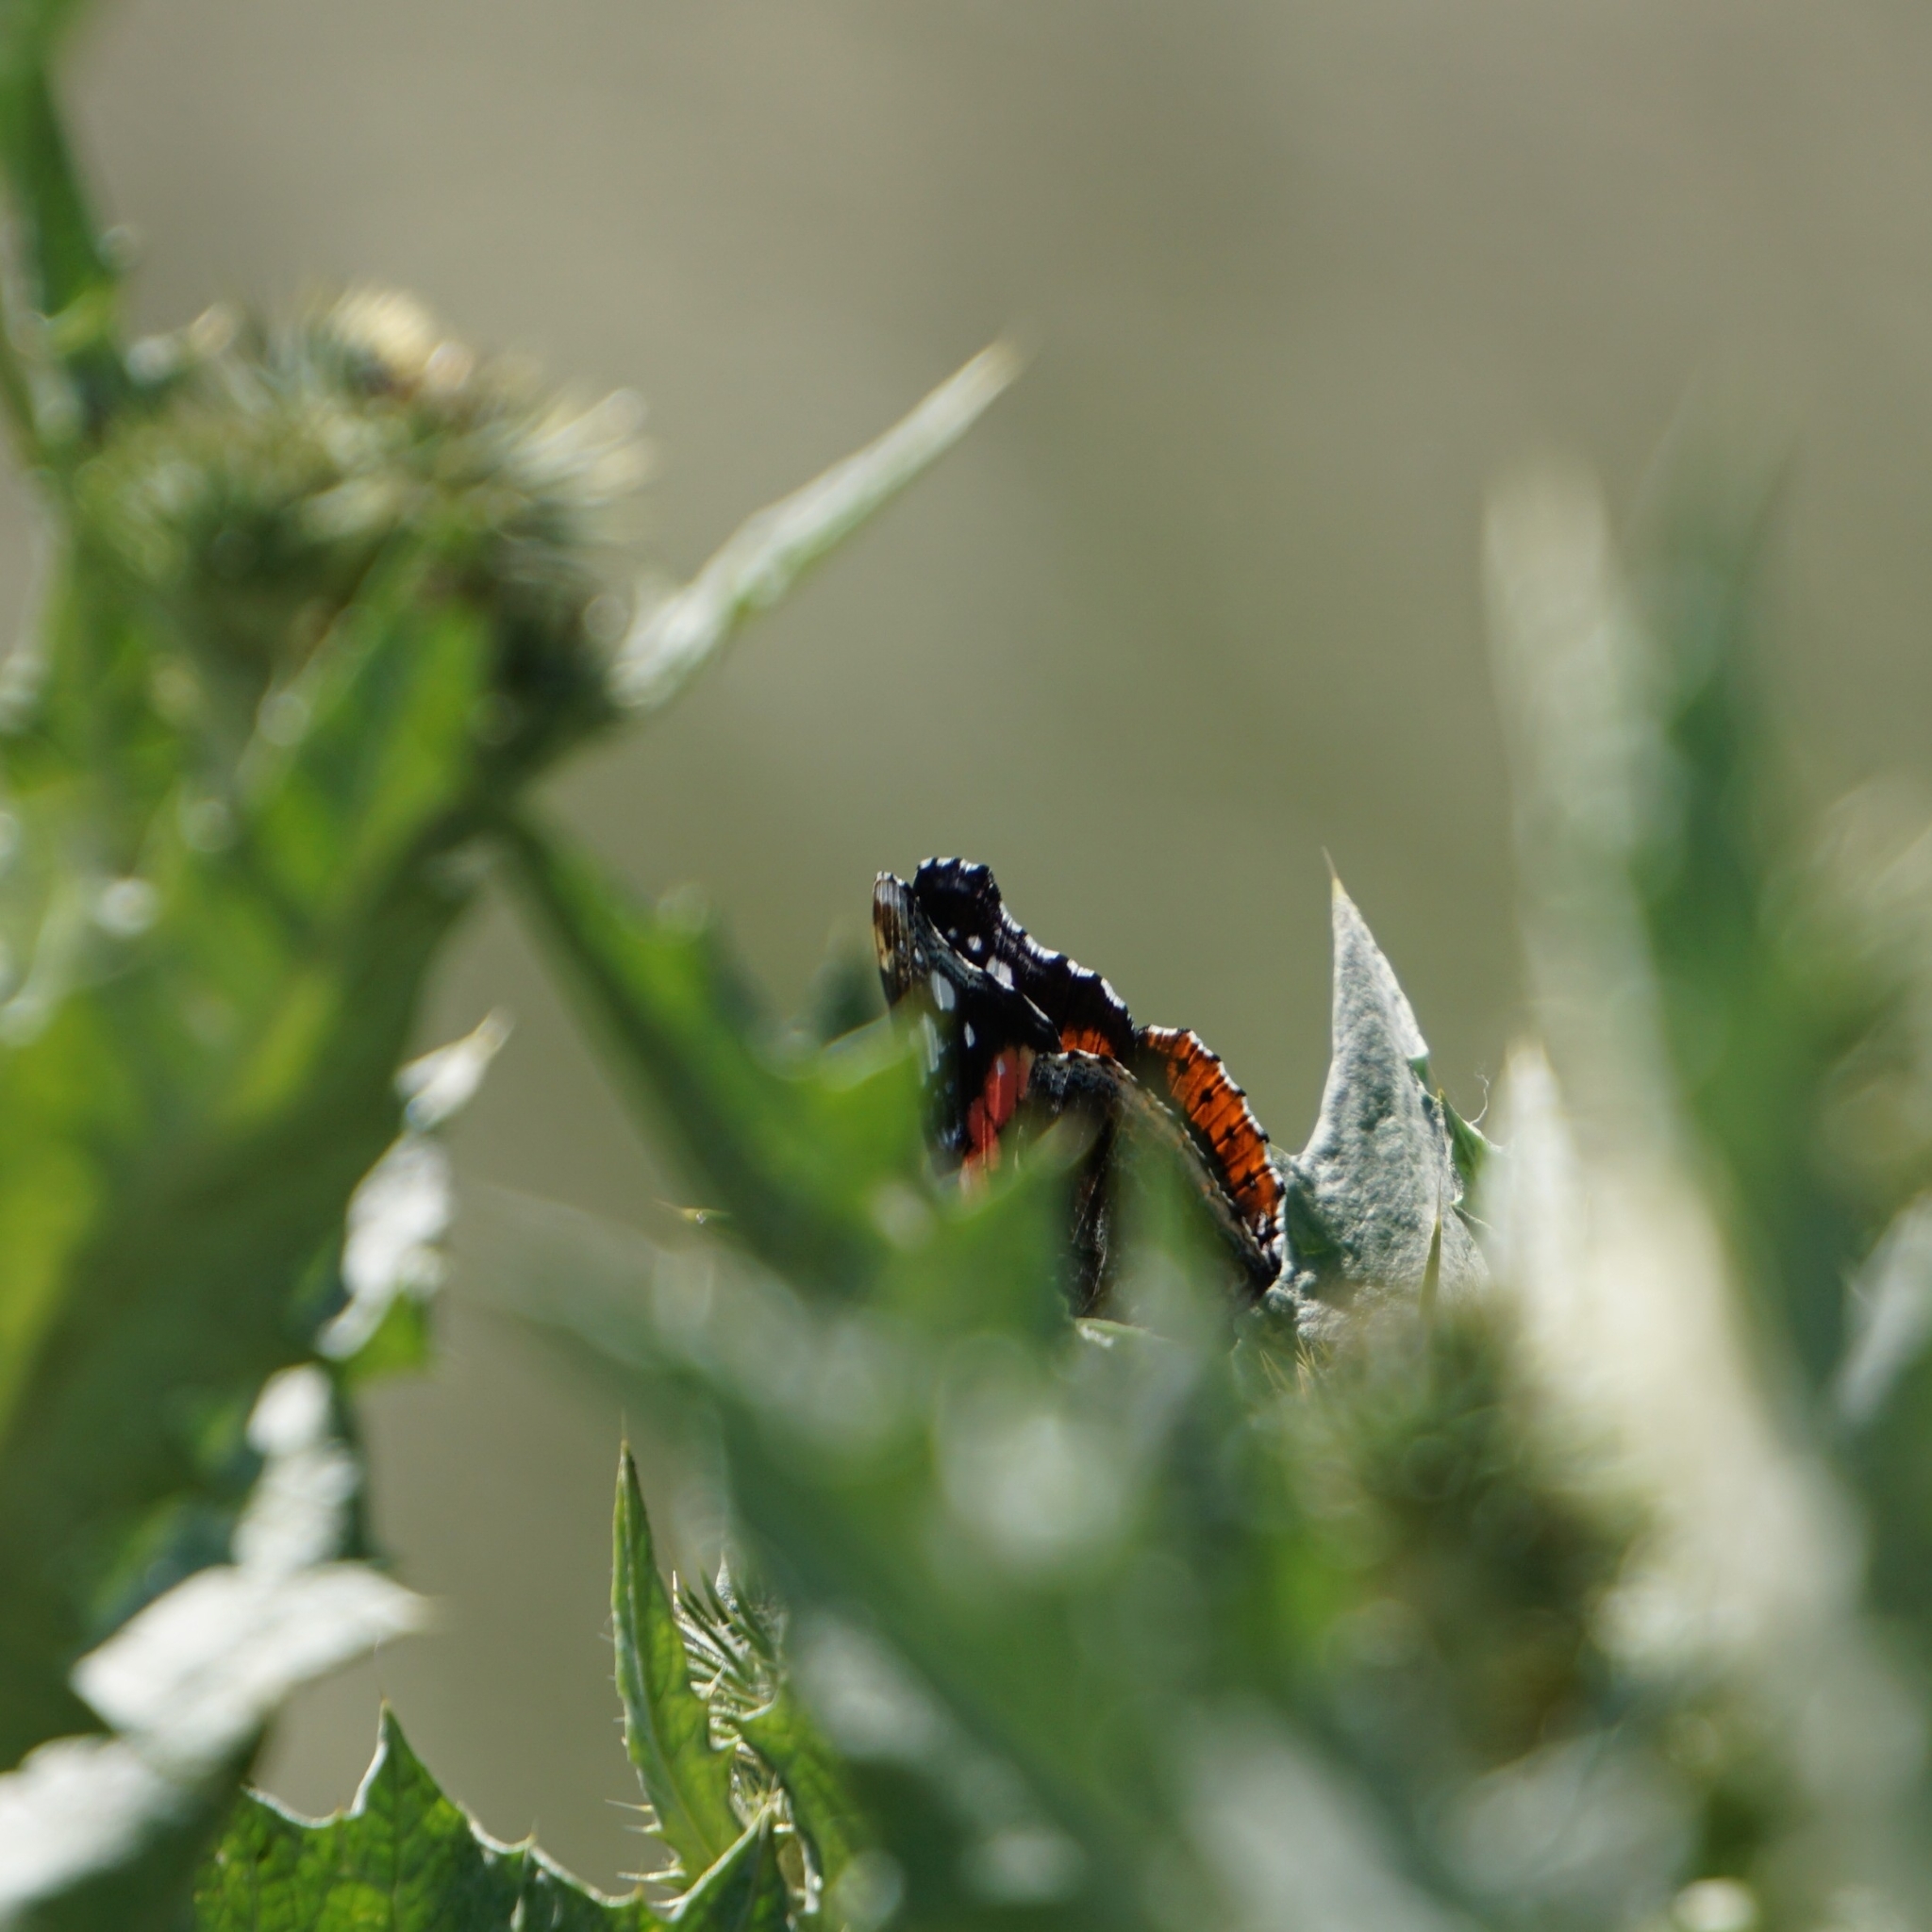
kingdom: Animalia
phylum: Arthropoda
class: Insecta
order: Lepidoptera
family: Nymphalidae
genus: Vanessa
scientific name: Vanessa atalanta
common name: Red admiral
